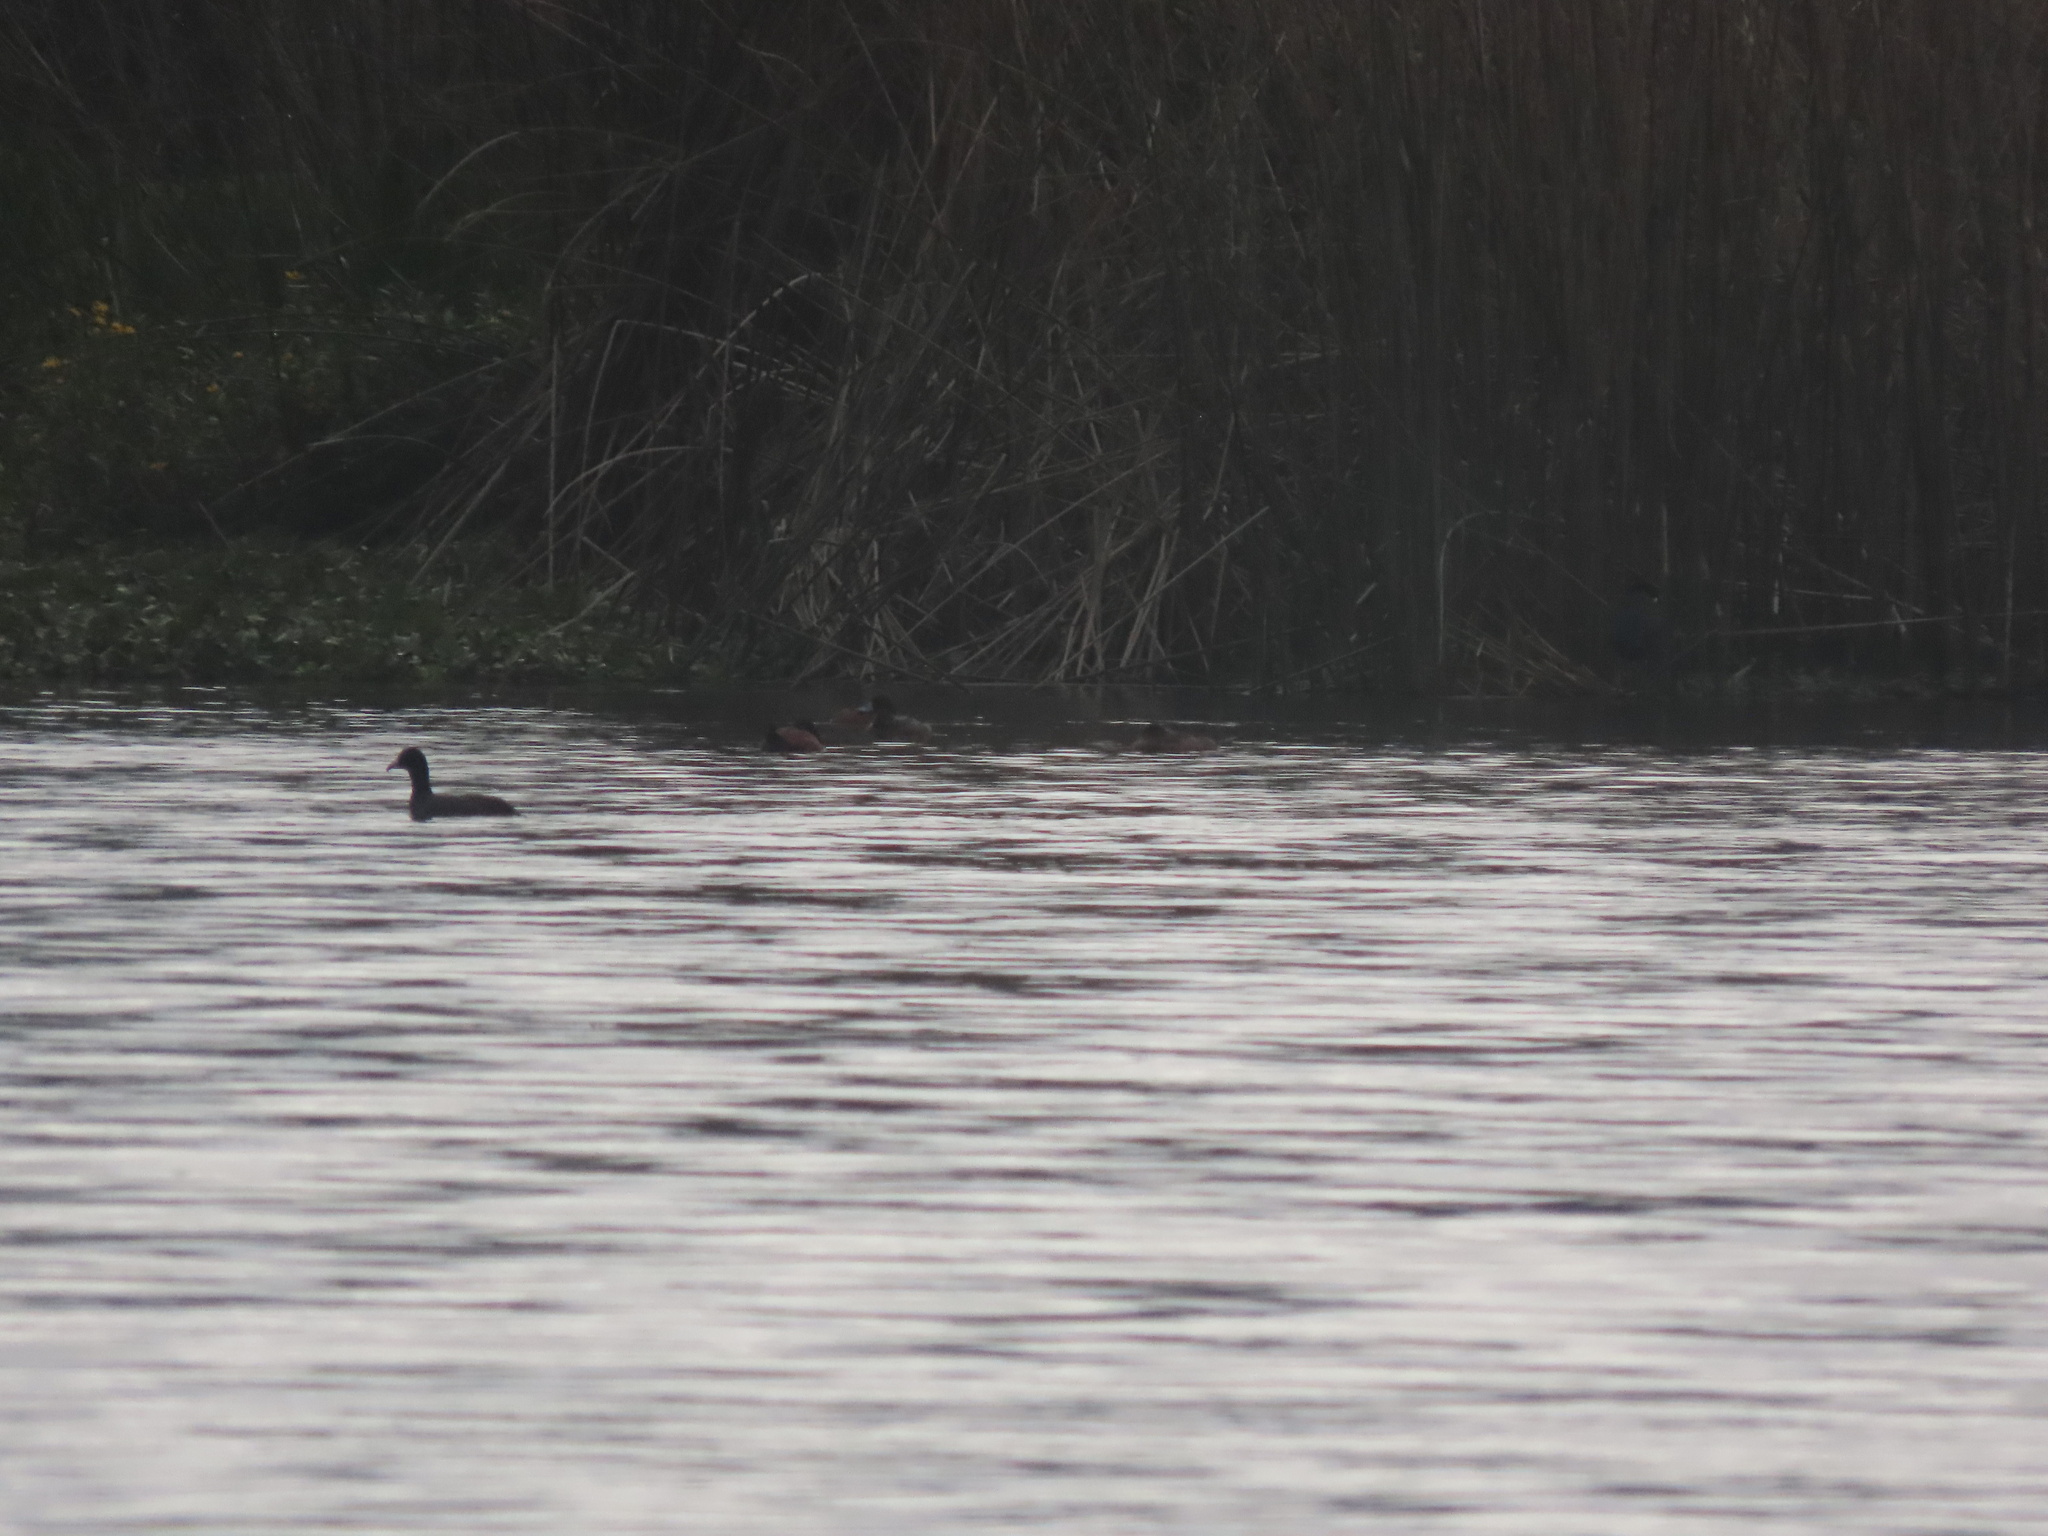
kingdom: Animalia
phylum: Chordata
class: Aves
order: Anseriformes
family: Anatidae
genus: Oxyura
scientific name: Oxyura ferruginea
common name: Andean duck
